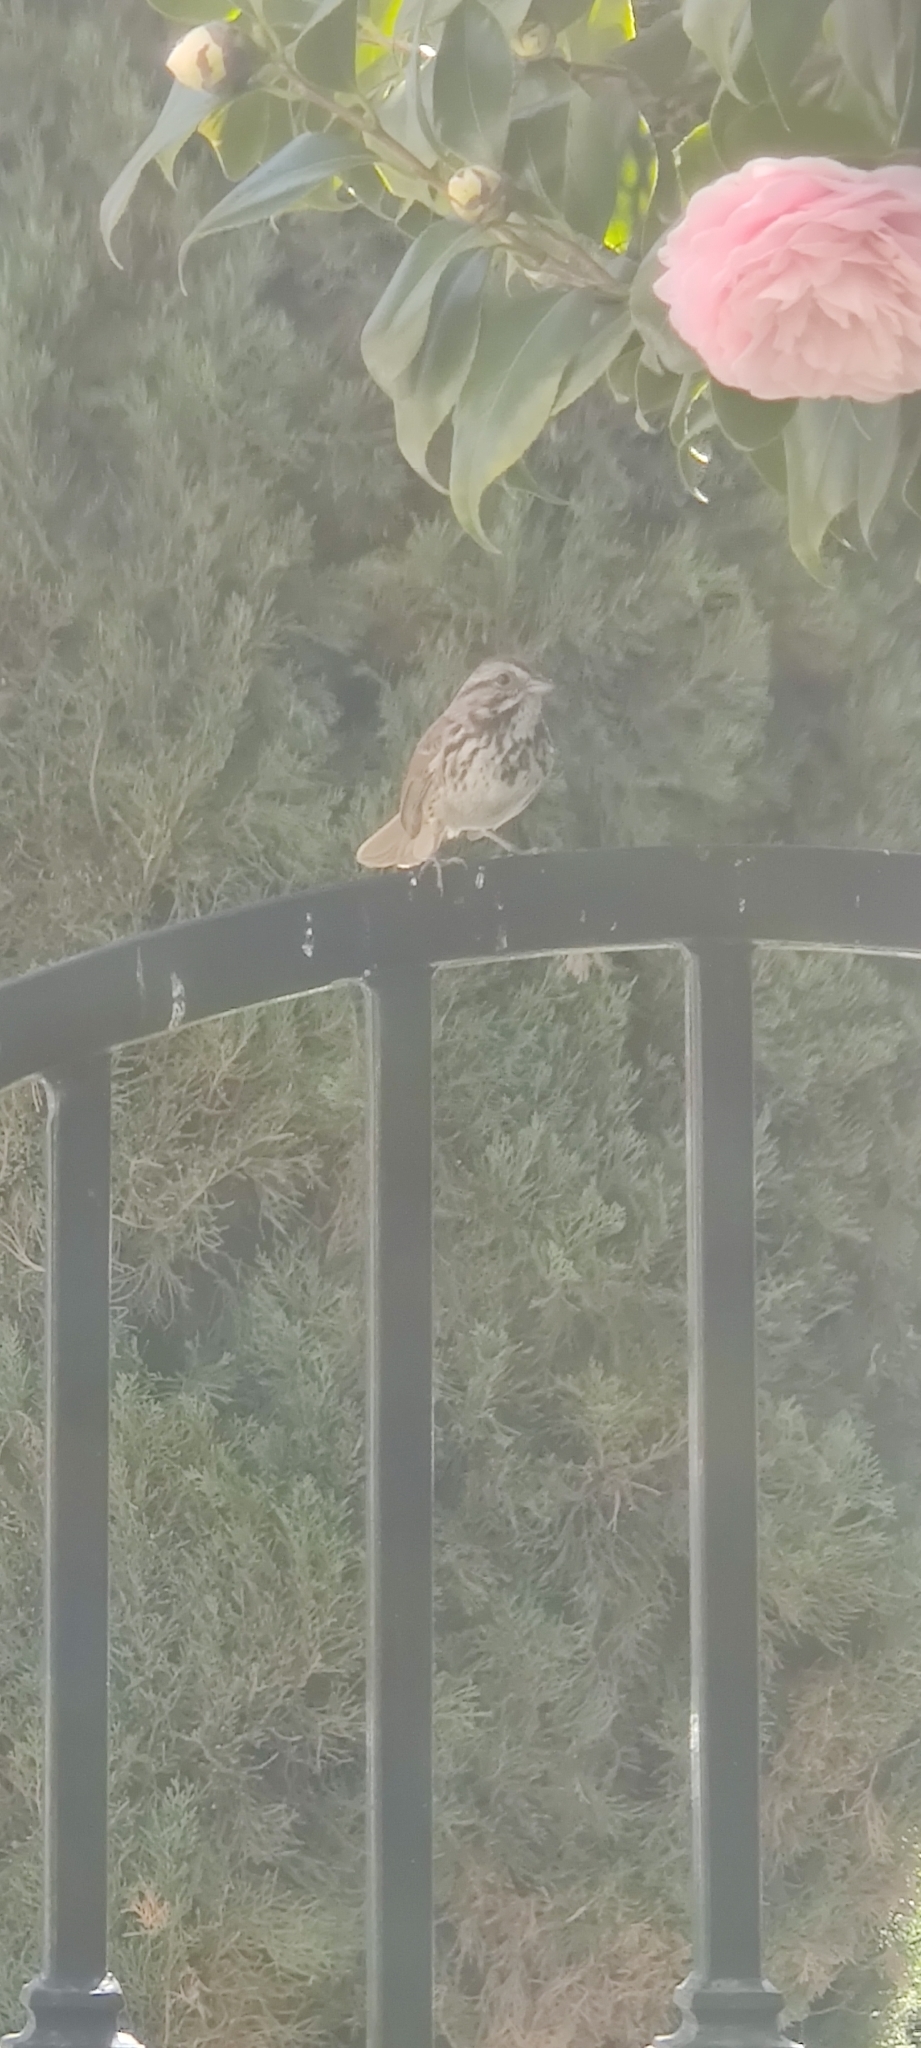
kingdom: Animalia
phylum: Chordata
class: Aves
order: Passeriformes
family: Passerellidae
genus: Melospiza
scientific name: Melospiza melodia
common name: Song sparrow
